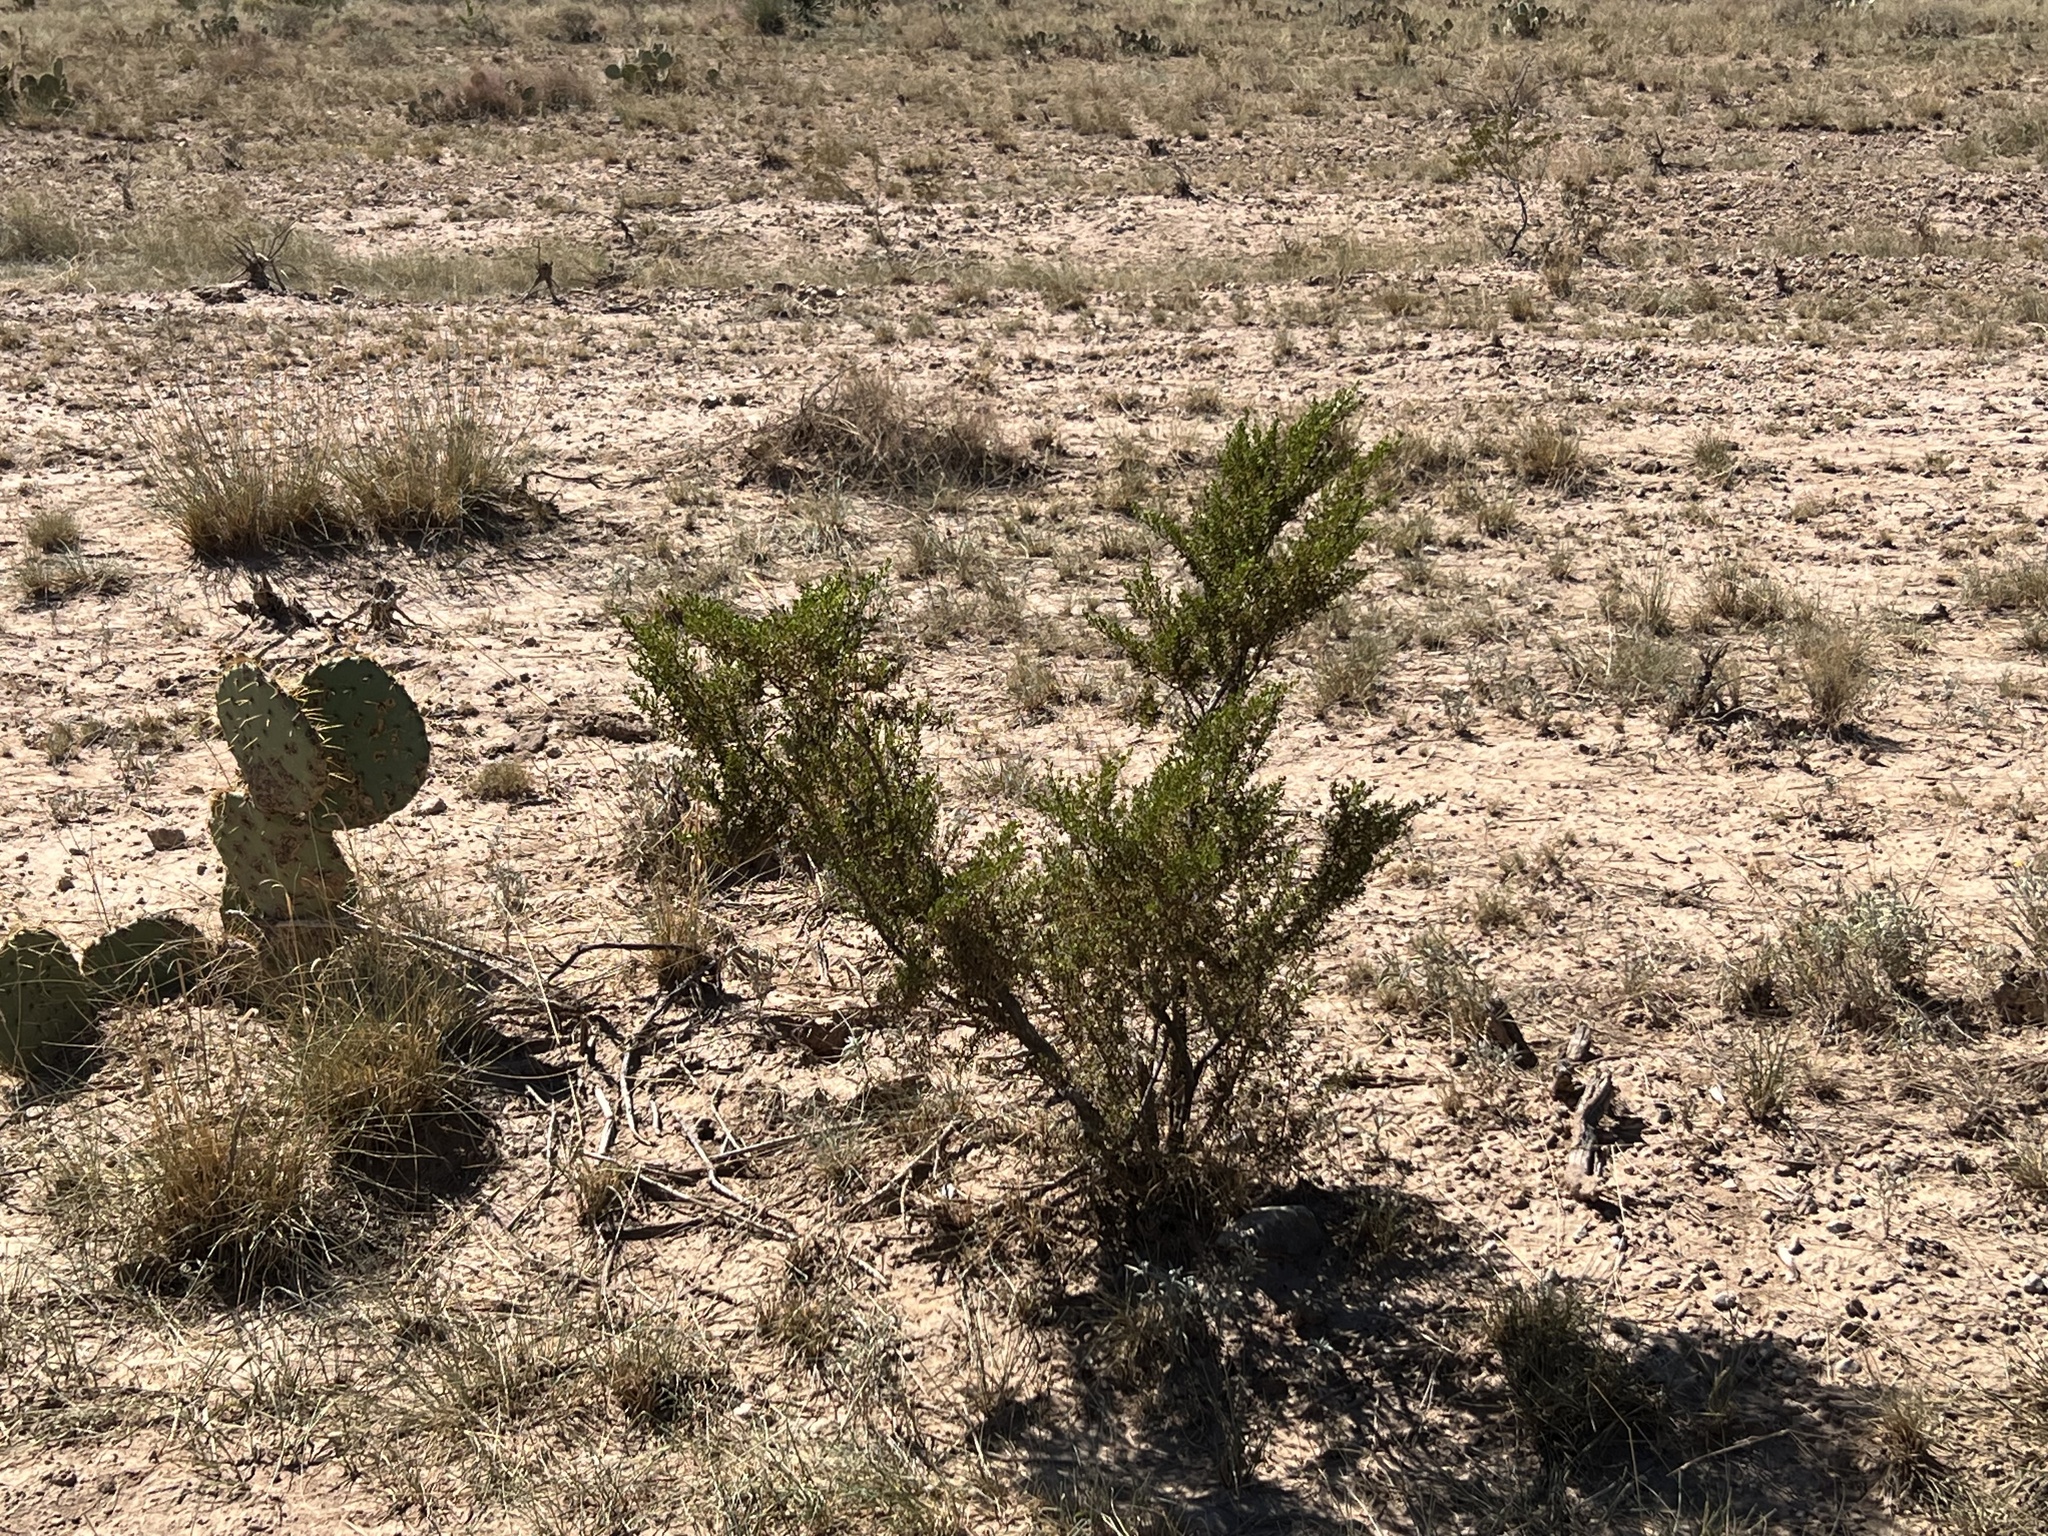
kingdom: Plantae
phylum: Tracheophyta
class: Magnoliopsida
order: Zygophyllales
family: Zygophyllaceae
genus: Larrea
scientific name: Larrea tridentata
